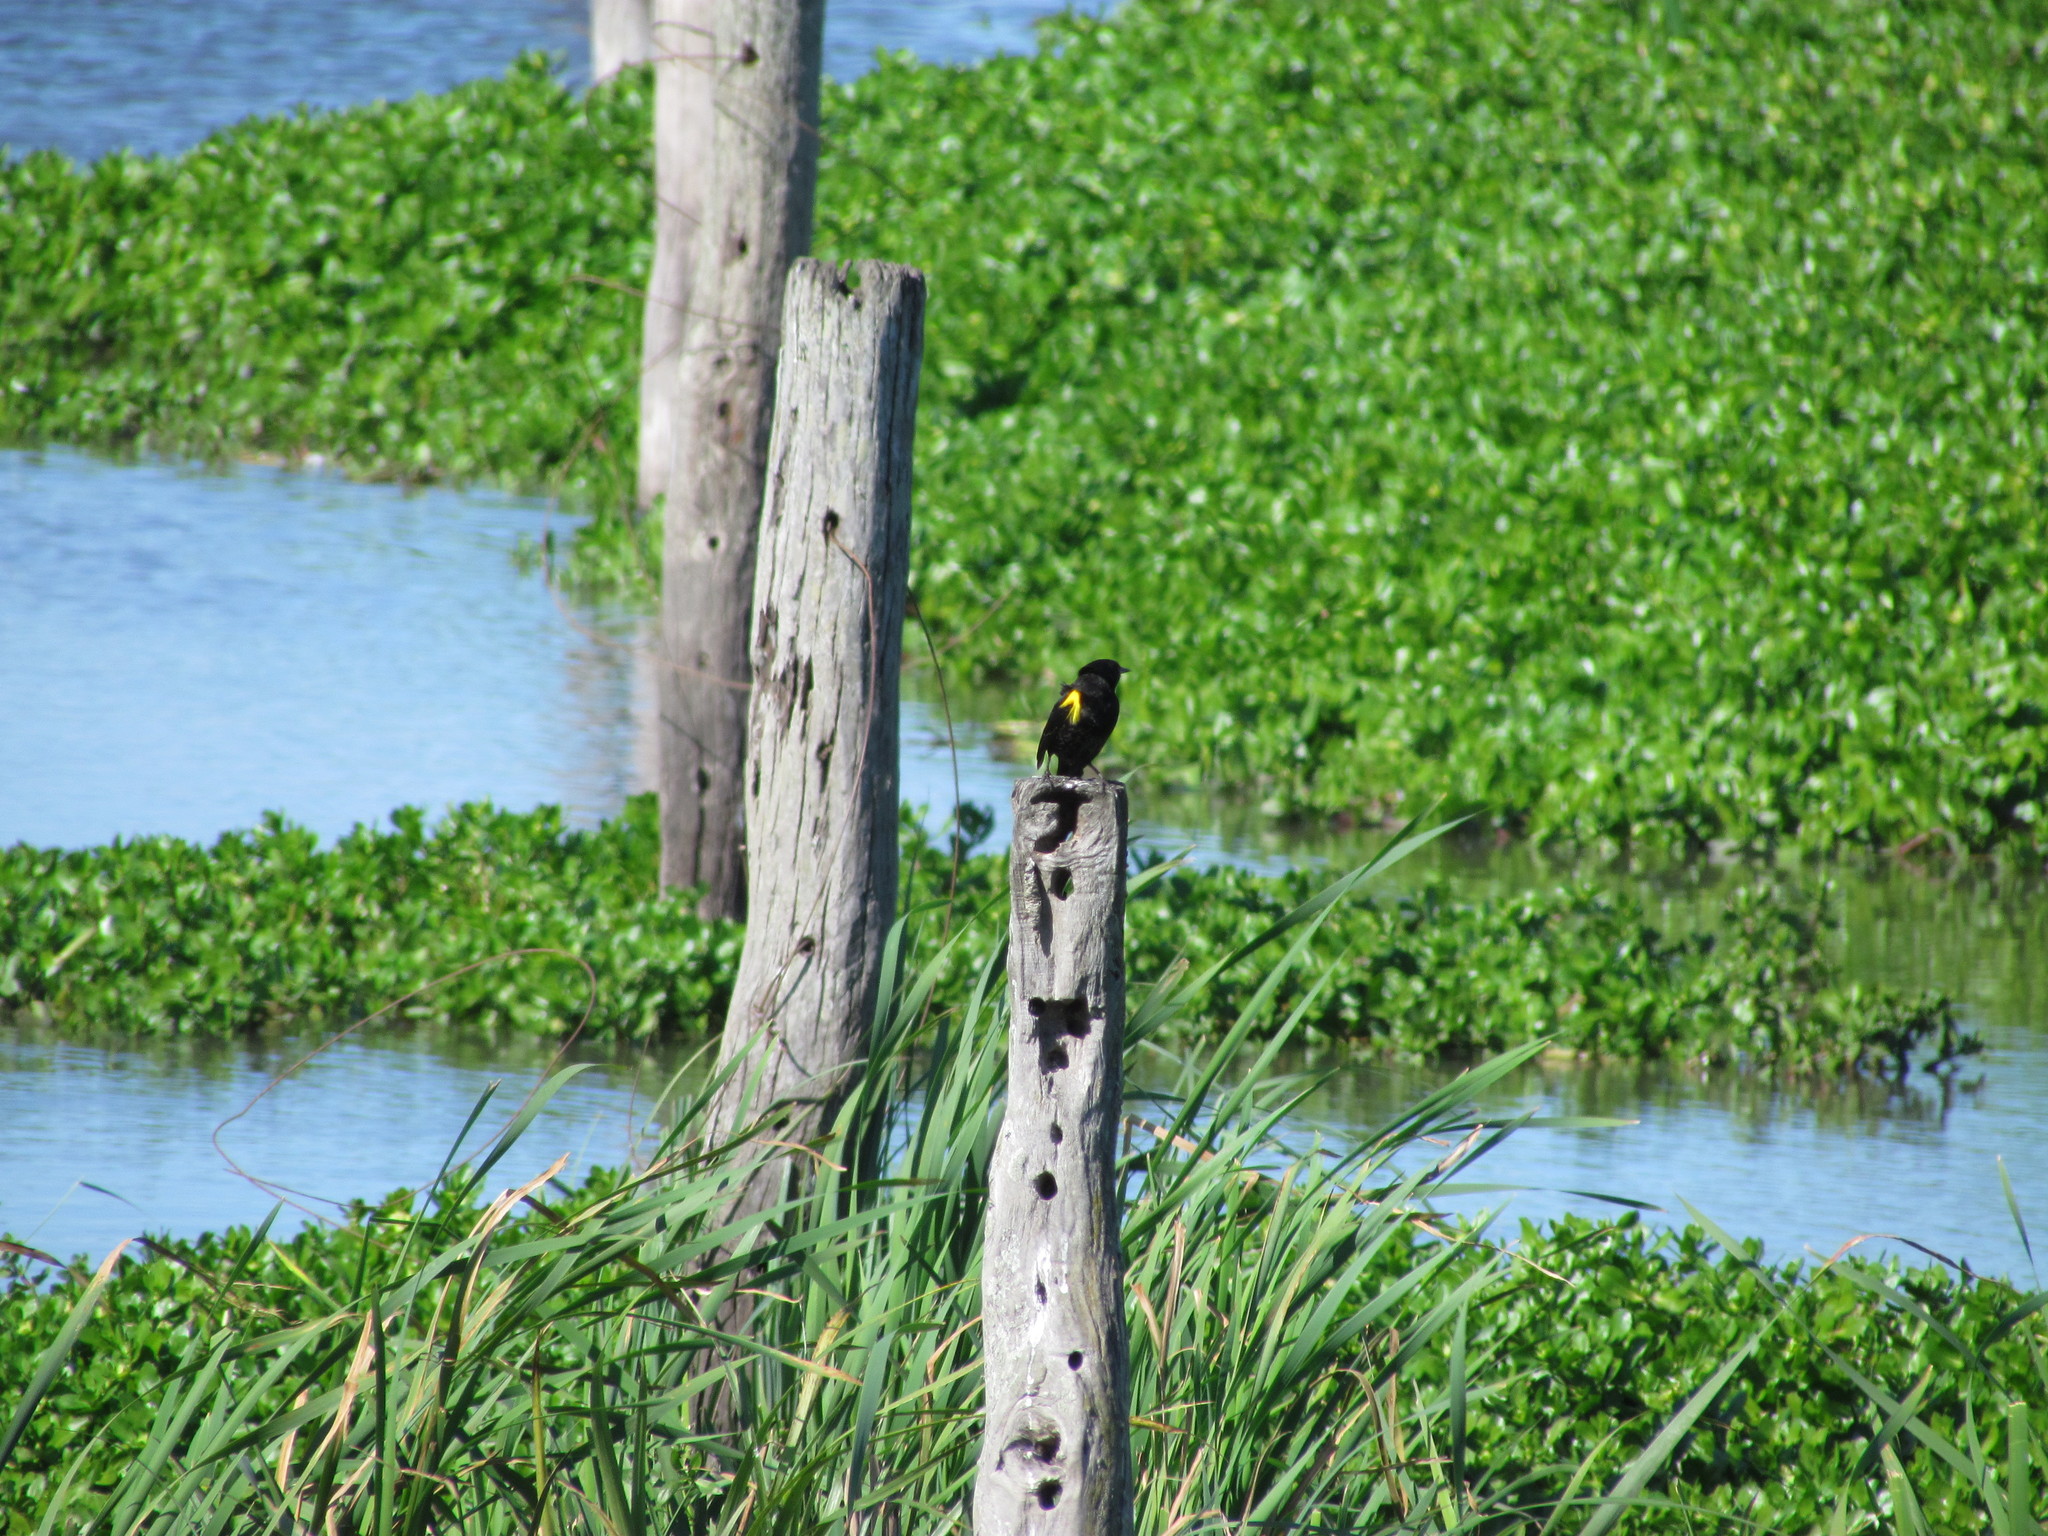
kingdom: Animalia
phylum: Chordata
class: Aves
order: Passeriformes
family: Icteridae
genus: Agelasticus
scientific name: Agelasticus thilius
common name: Yellow-winged blackbird
